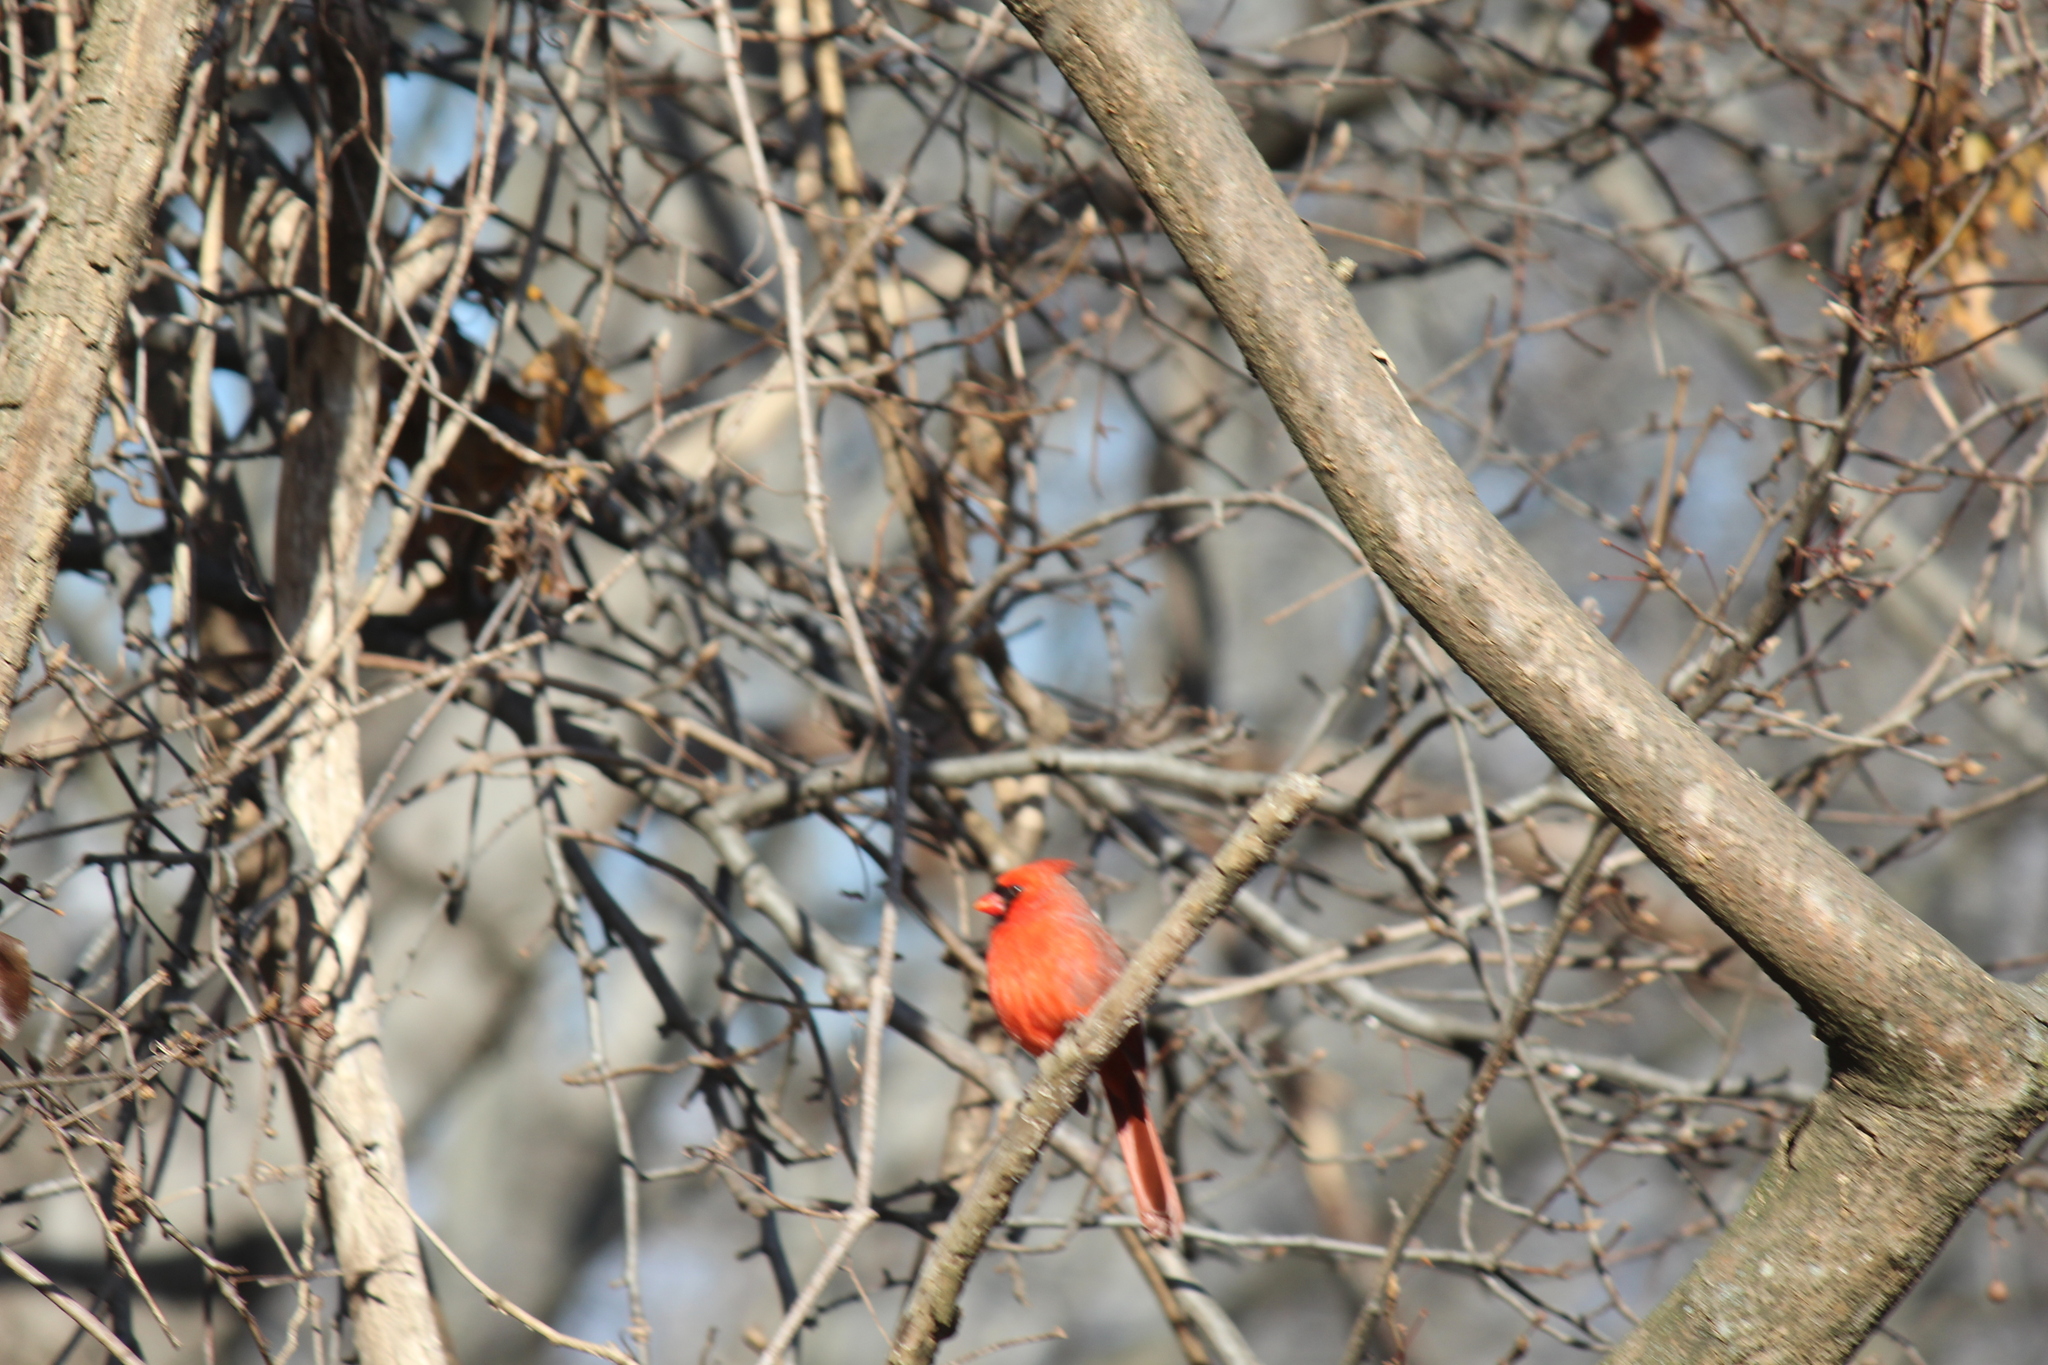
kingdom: Animalia
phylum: Chordata
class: Aves
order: Passeriformes
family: Cardinalidae
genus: Cardinalis
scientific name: Cardinalis cardinalis
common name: Northern cardinal
